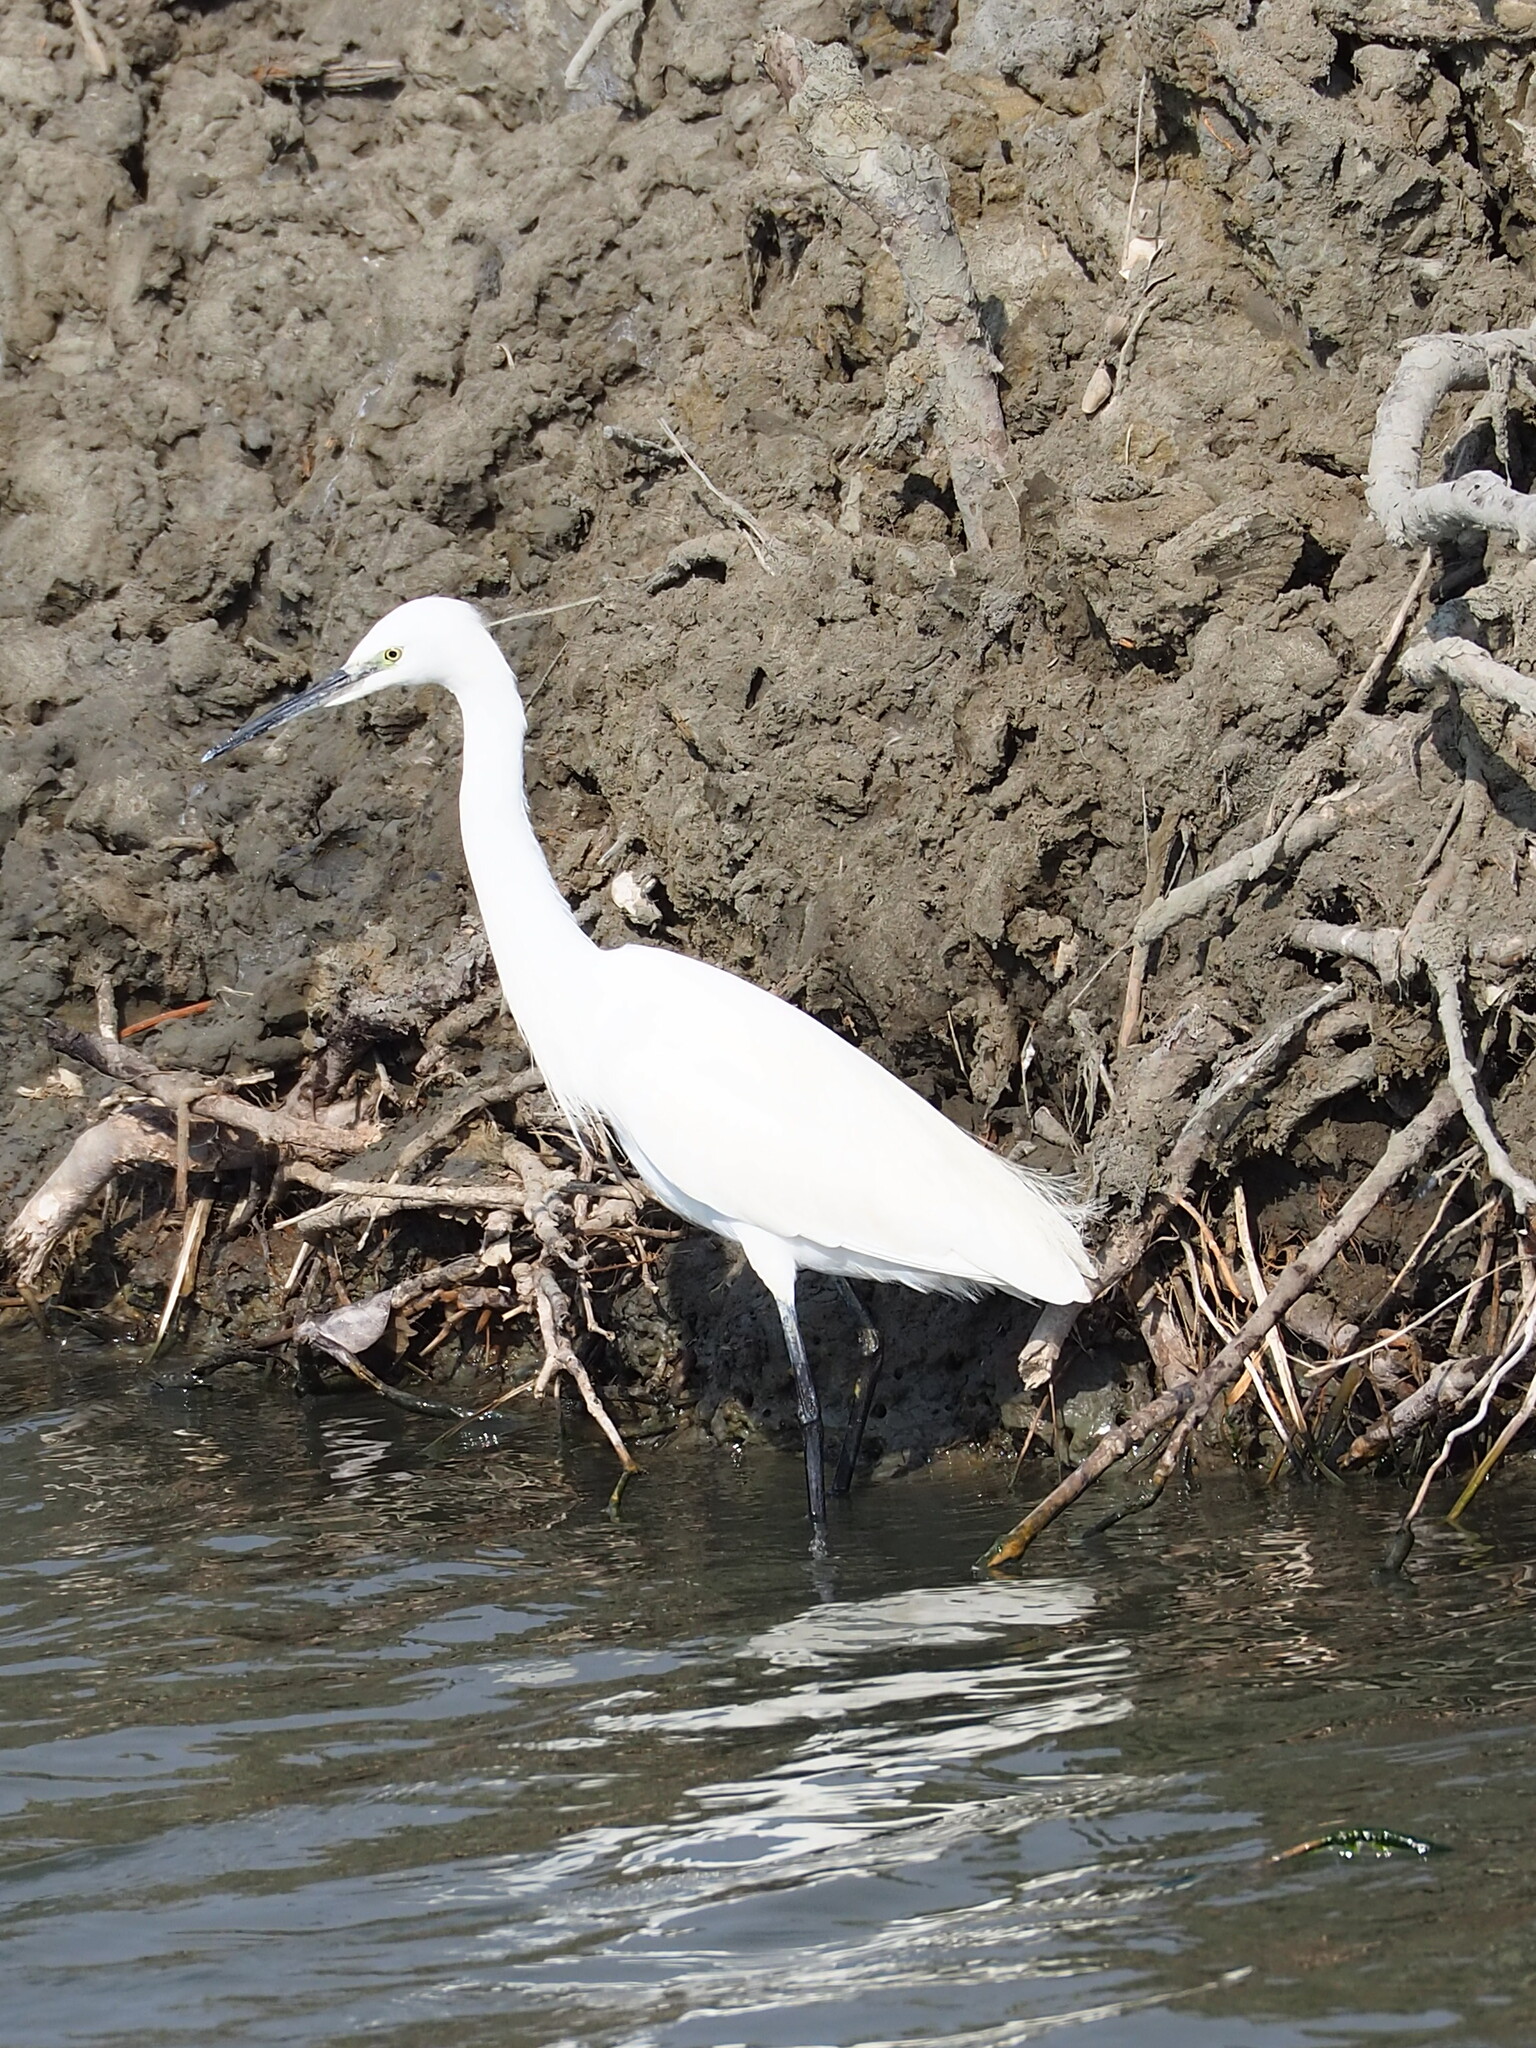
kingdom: Animalia
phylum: Chordata
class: Aves
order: Pelecaniformes
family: Ardeidae
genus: Egretta
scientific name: Egretta garzetta
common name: Little egret
